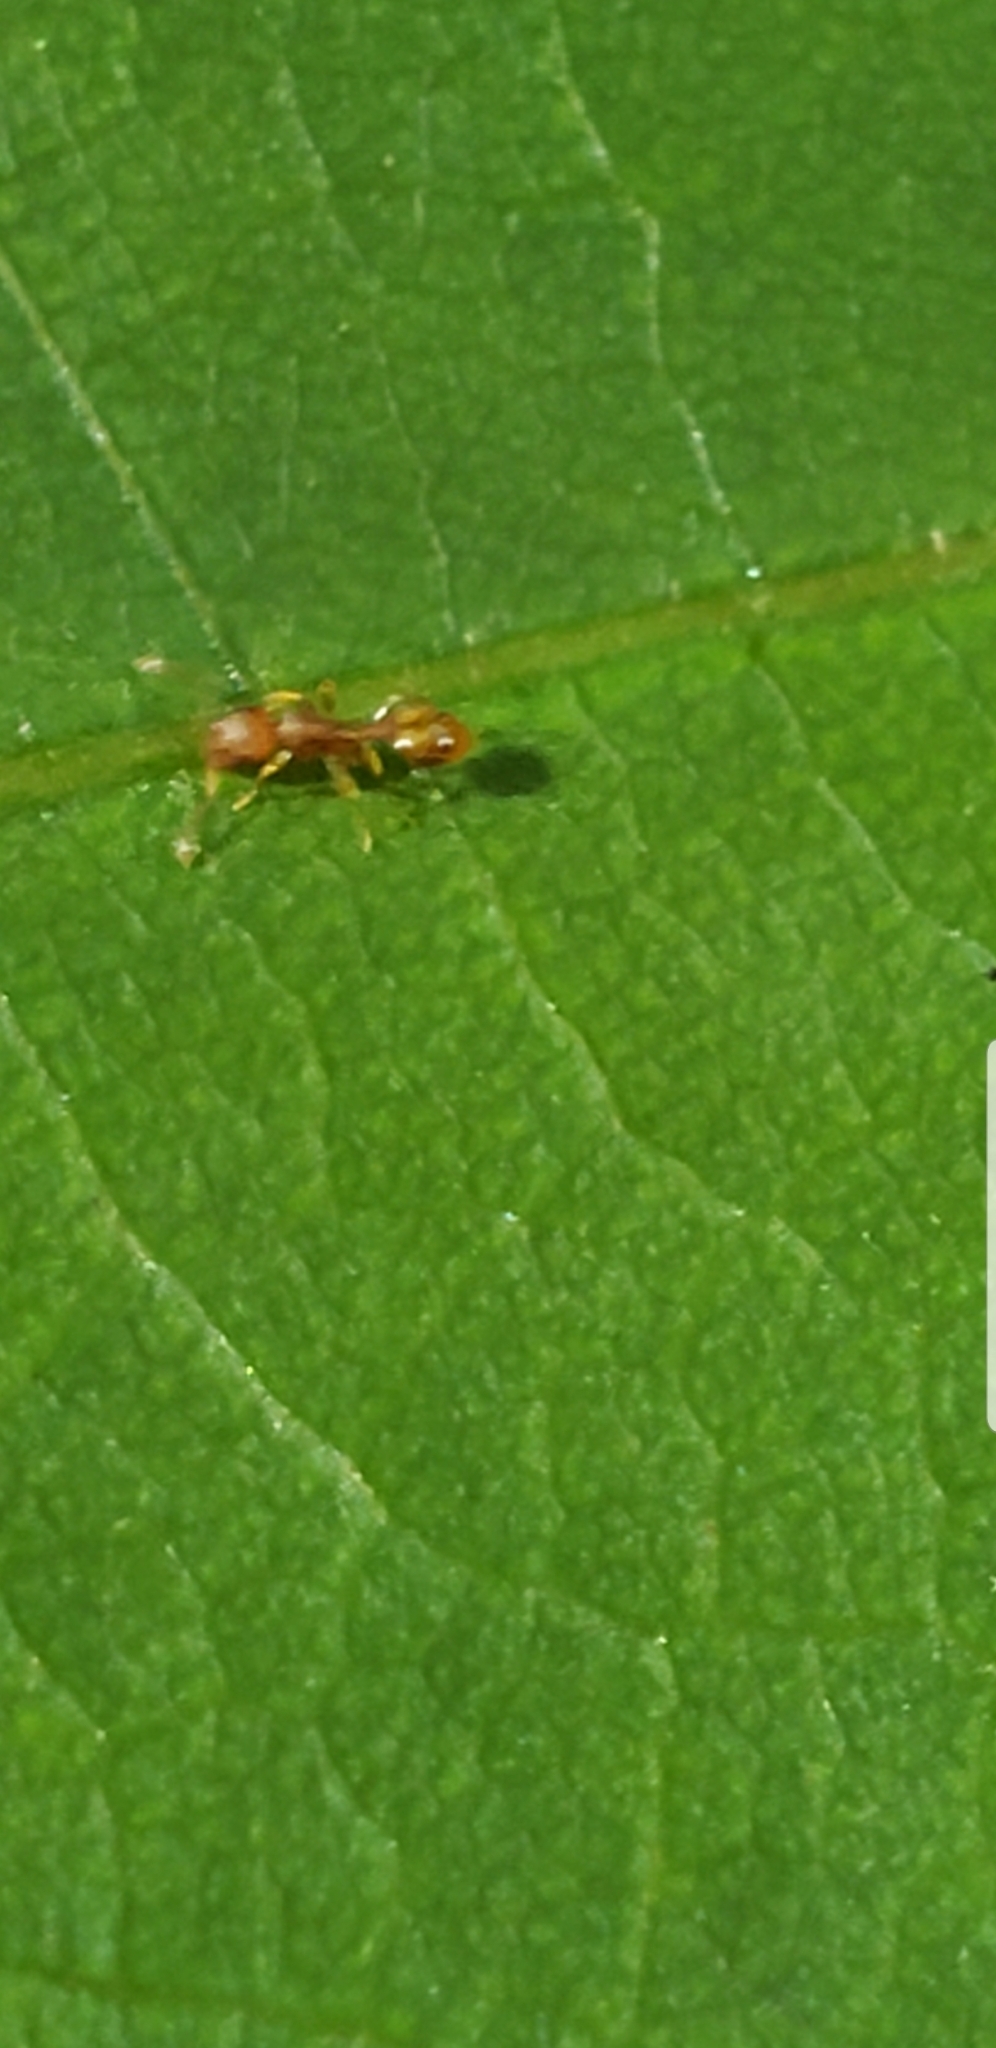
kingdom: Animalia
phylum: Arthropoda
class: Insecta
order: Hymenoptera
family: Formicidae
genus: Temnothorax
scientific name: Temnothorax curvispinosus
